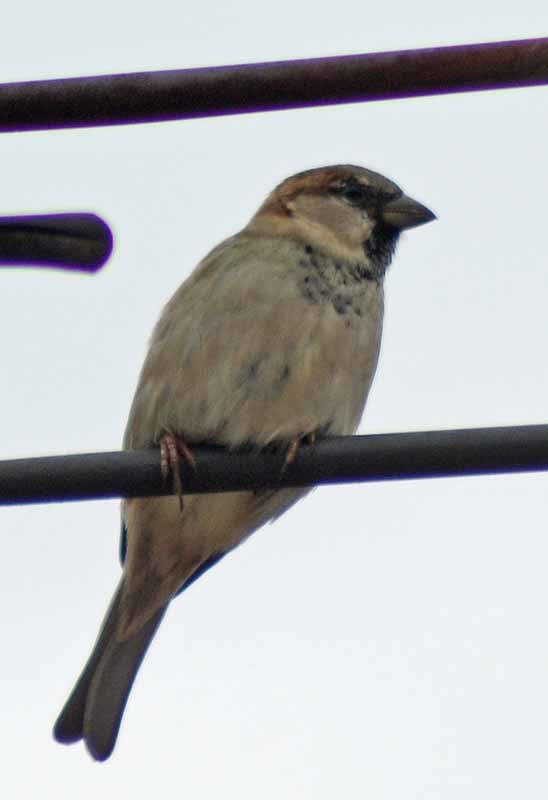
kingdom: Animalia
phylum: Chordata
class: Aves
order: Passeriformes
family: Passeridae
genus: Passer
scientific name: Passer domesticus
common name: House sparrow
